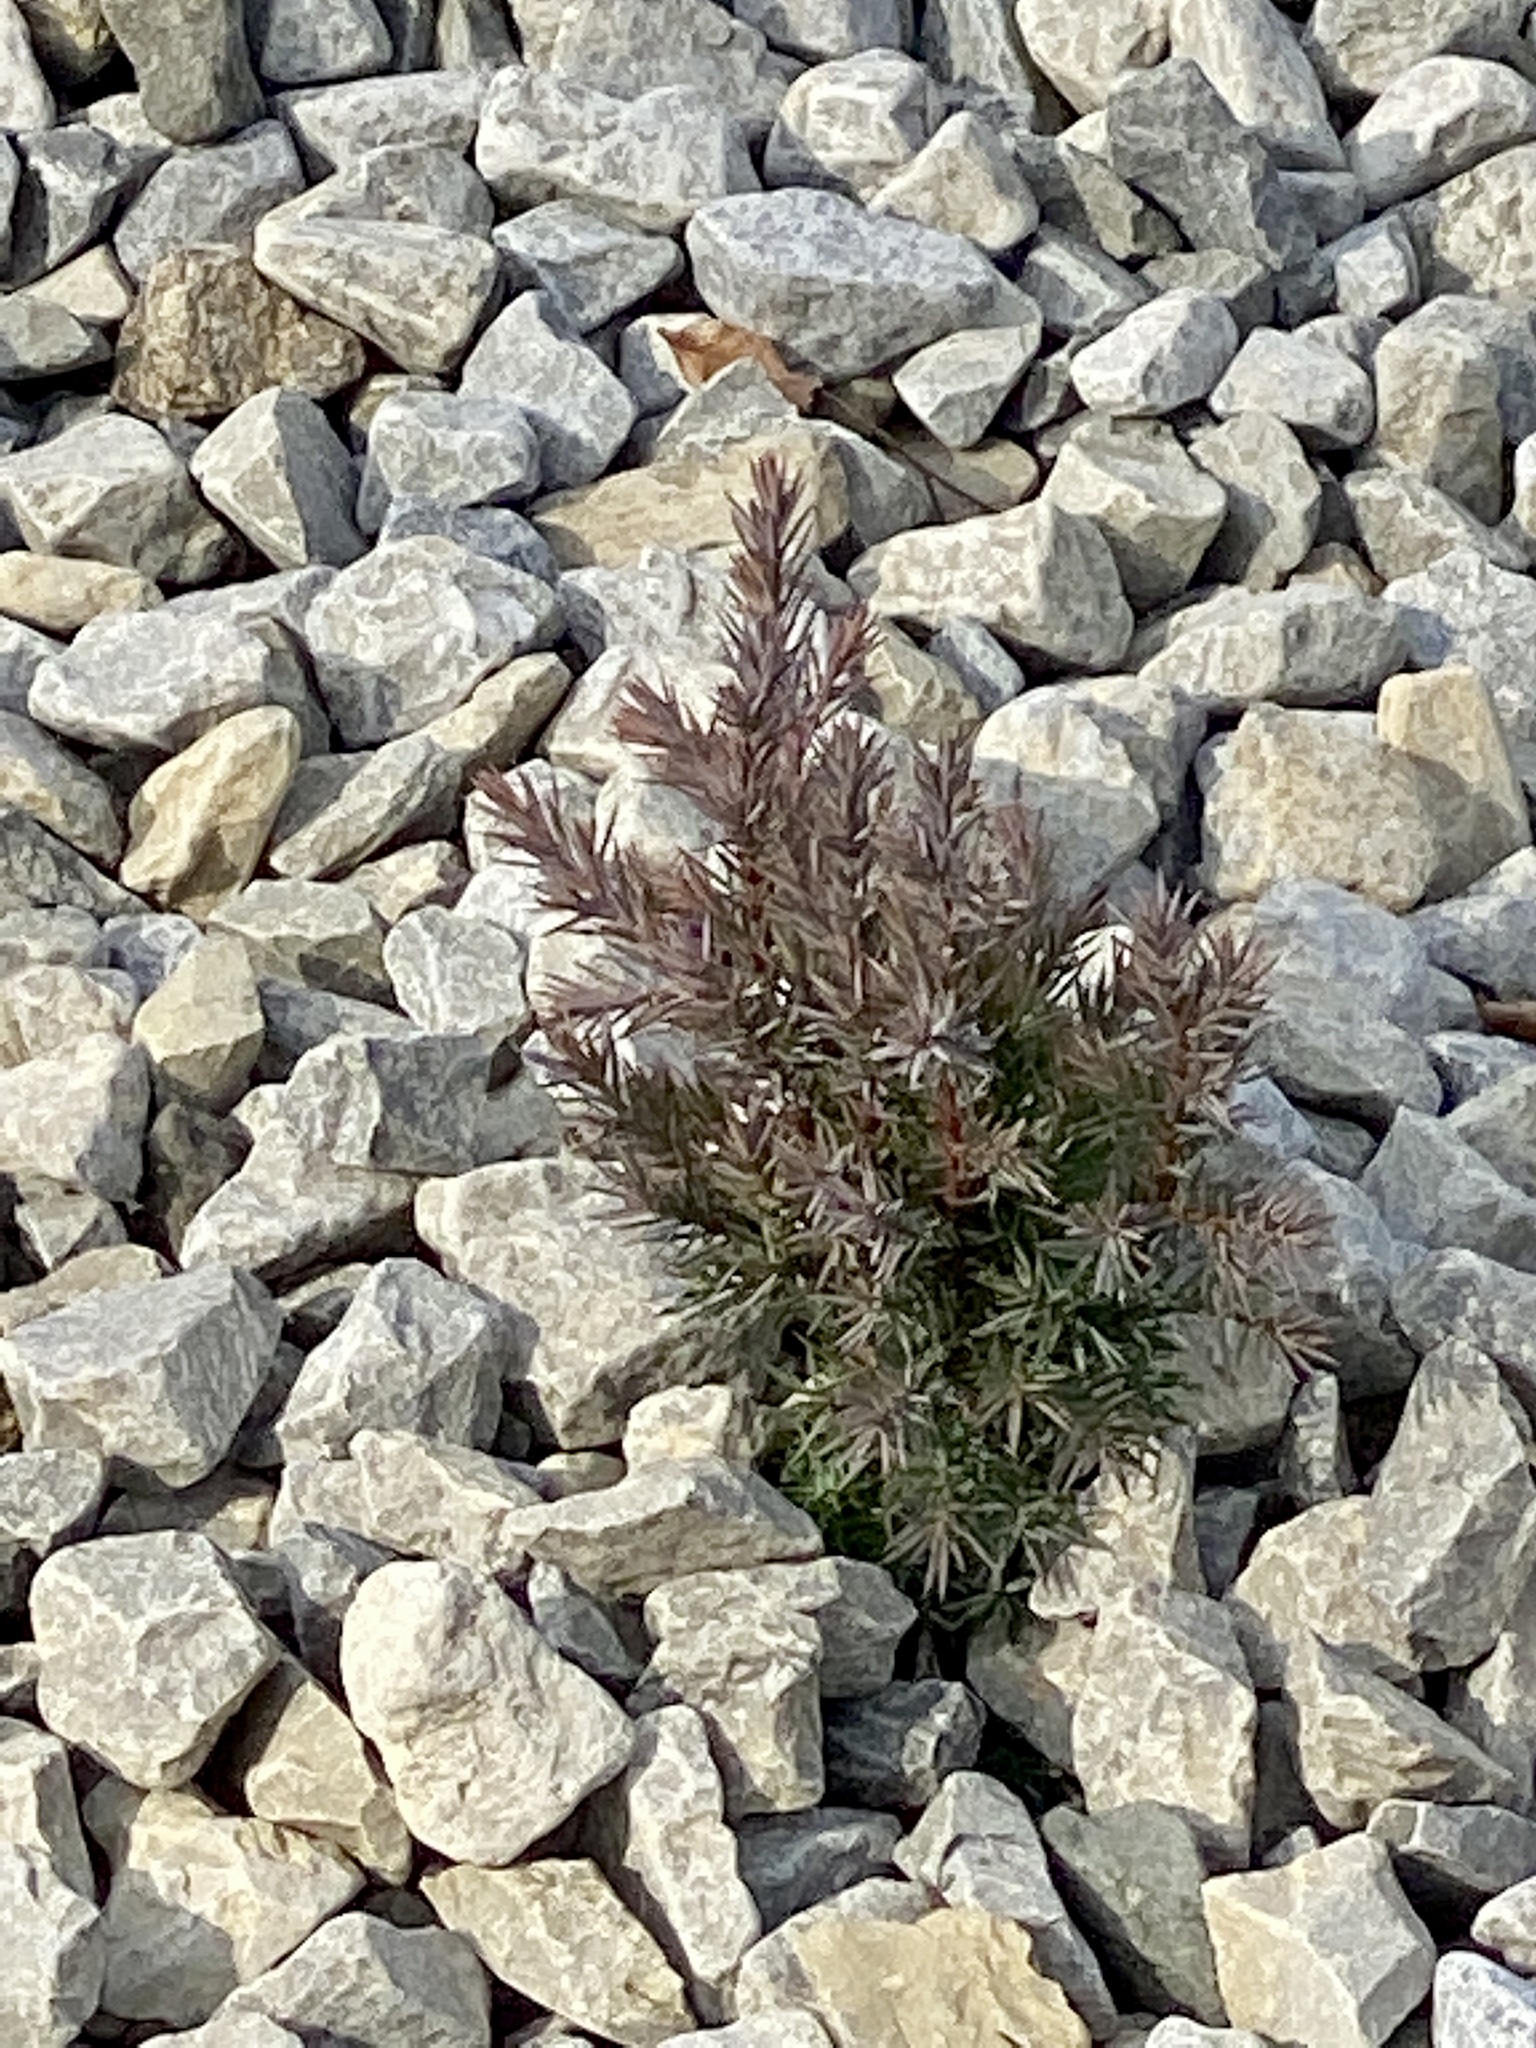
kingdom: Plantae
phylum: Tracheophyta
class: Pinopsida
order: Pinales
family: Cupressaceae
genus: Juniperus
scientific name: Juniperus virginiana
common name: Red juniper
